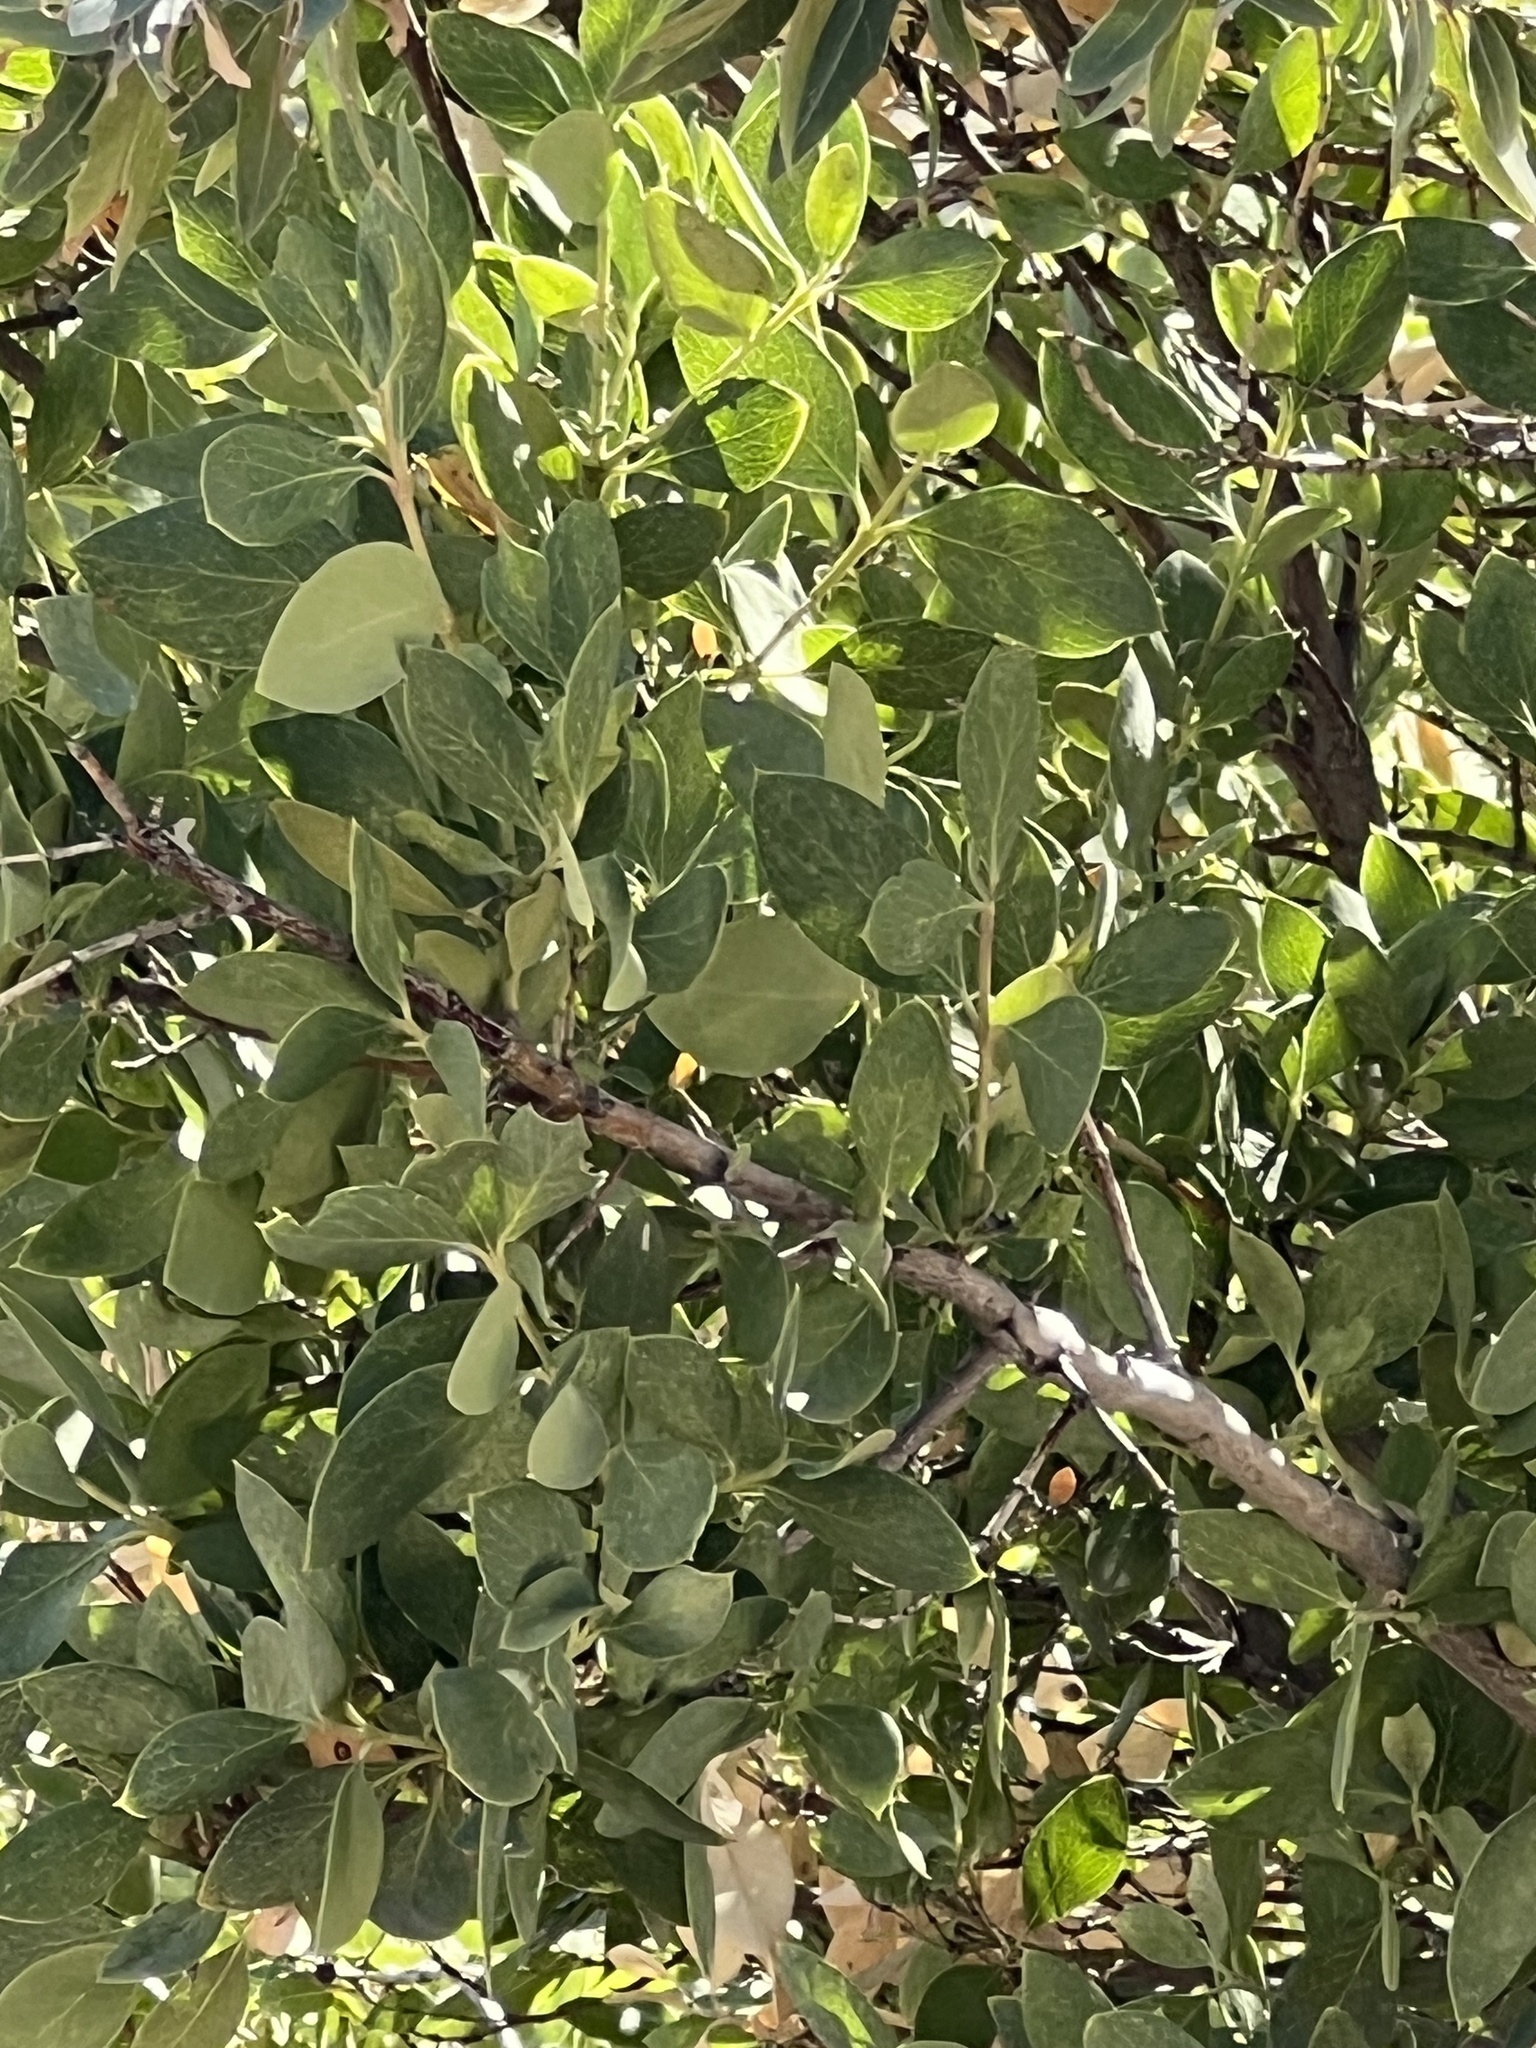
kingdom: Plantae
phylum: Tracheophyta
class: Magnoliopsida
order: Garryales
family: Garryaceae
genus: Garrya
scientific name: Garrya wrightii
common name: Wright's silktassel
